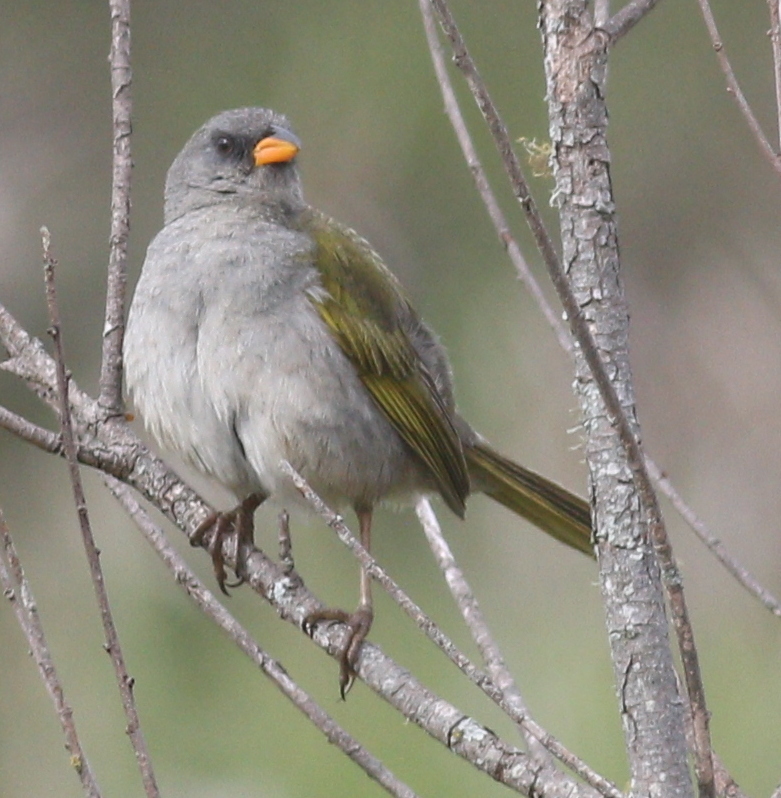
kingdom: Animalia
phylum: Chordata
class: Aves
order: Passeriformes
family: Thraupidae
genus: Embernagra
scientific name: Embernagra platensis
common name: Pampa finch
